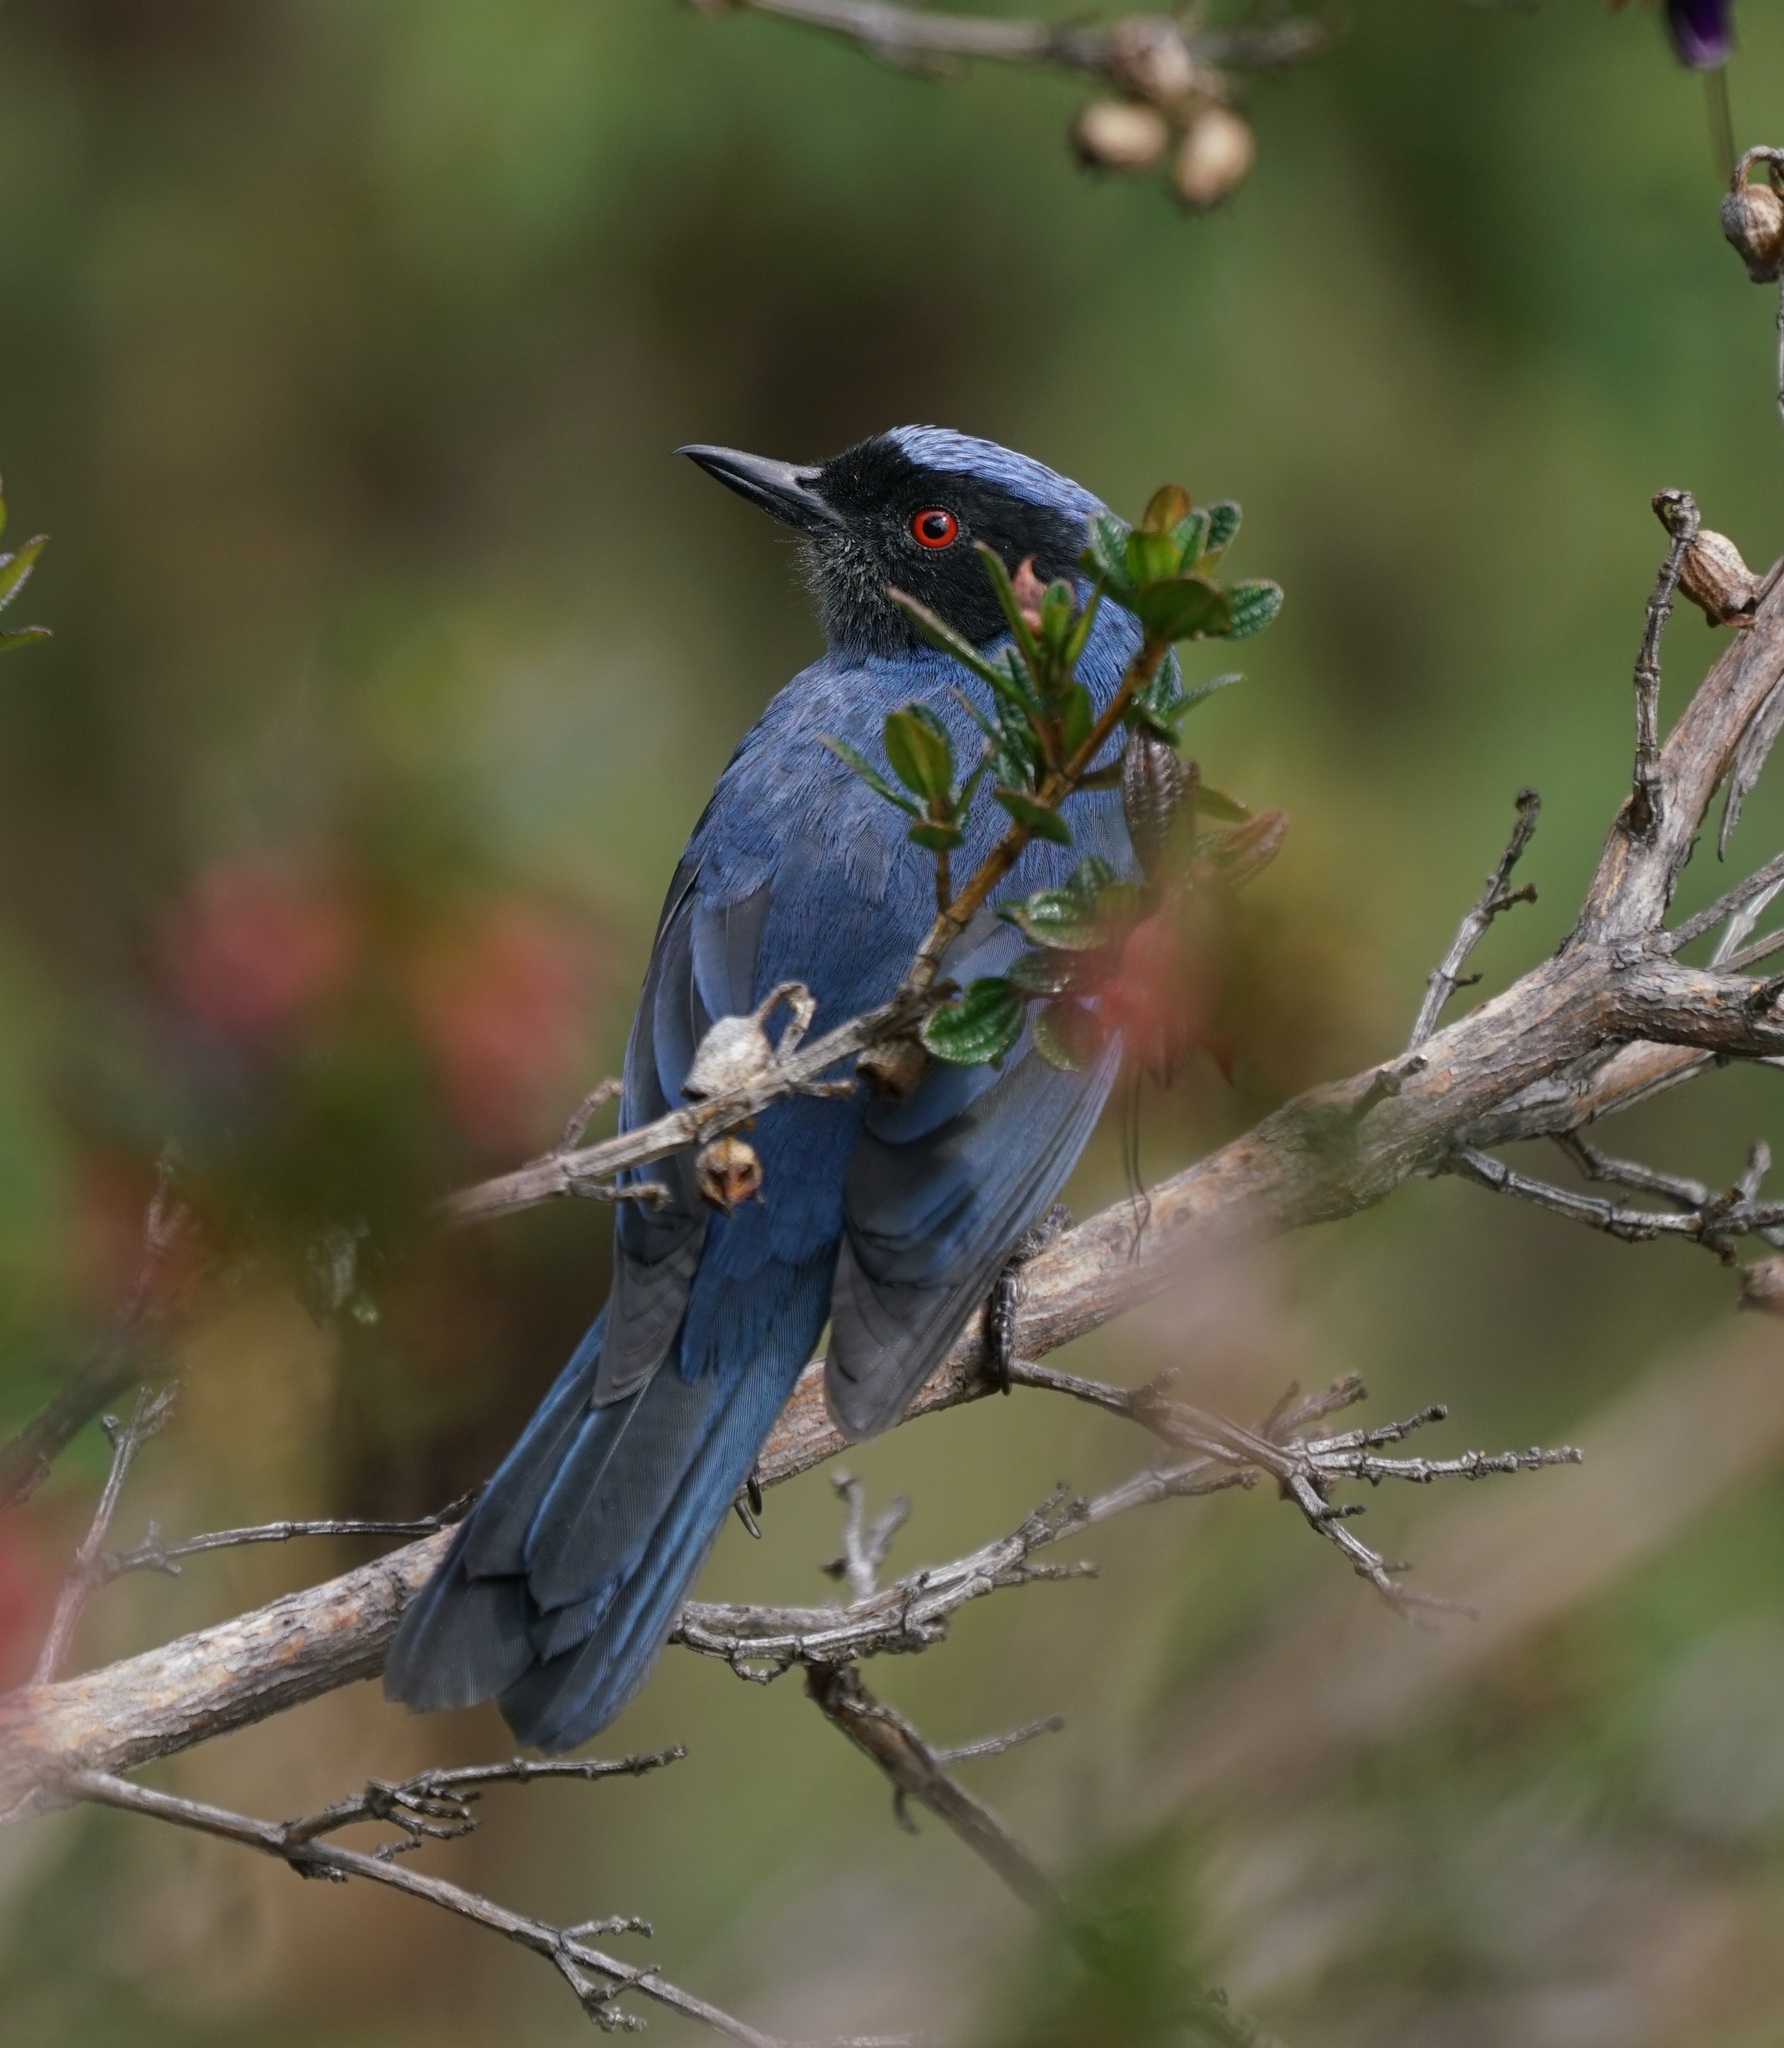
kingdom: Animalia
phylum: Chordata
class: Aves
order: Passeriformes
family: Thraupidae
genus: Diglossa
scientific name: Diglossa cyanea
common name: Masked flowerpiercer
